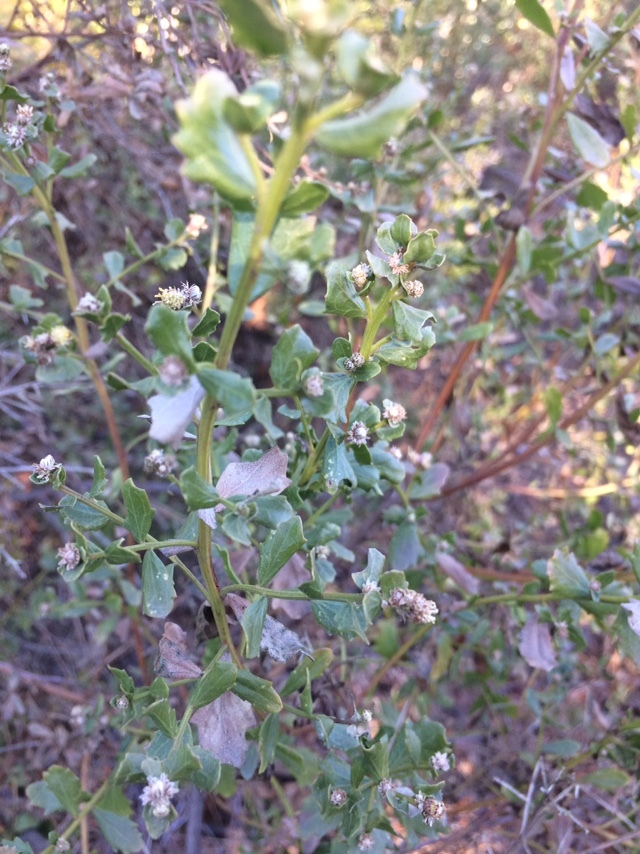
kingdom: Plantae
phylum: Tracheophyta
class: Magnoliopsida
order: Asterales
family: Asteraceae
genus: Baccharis
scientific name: Baccharis pilularis
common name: Coyotebrush
